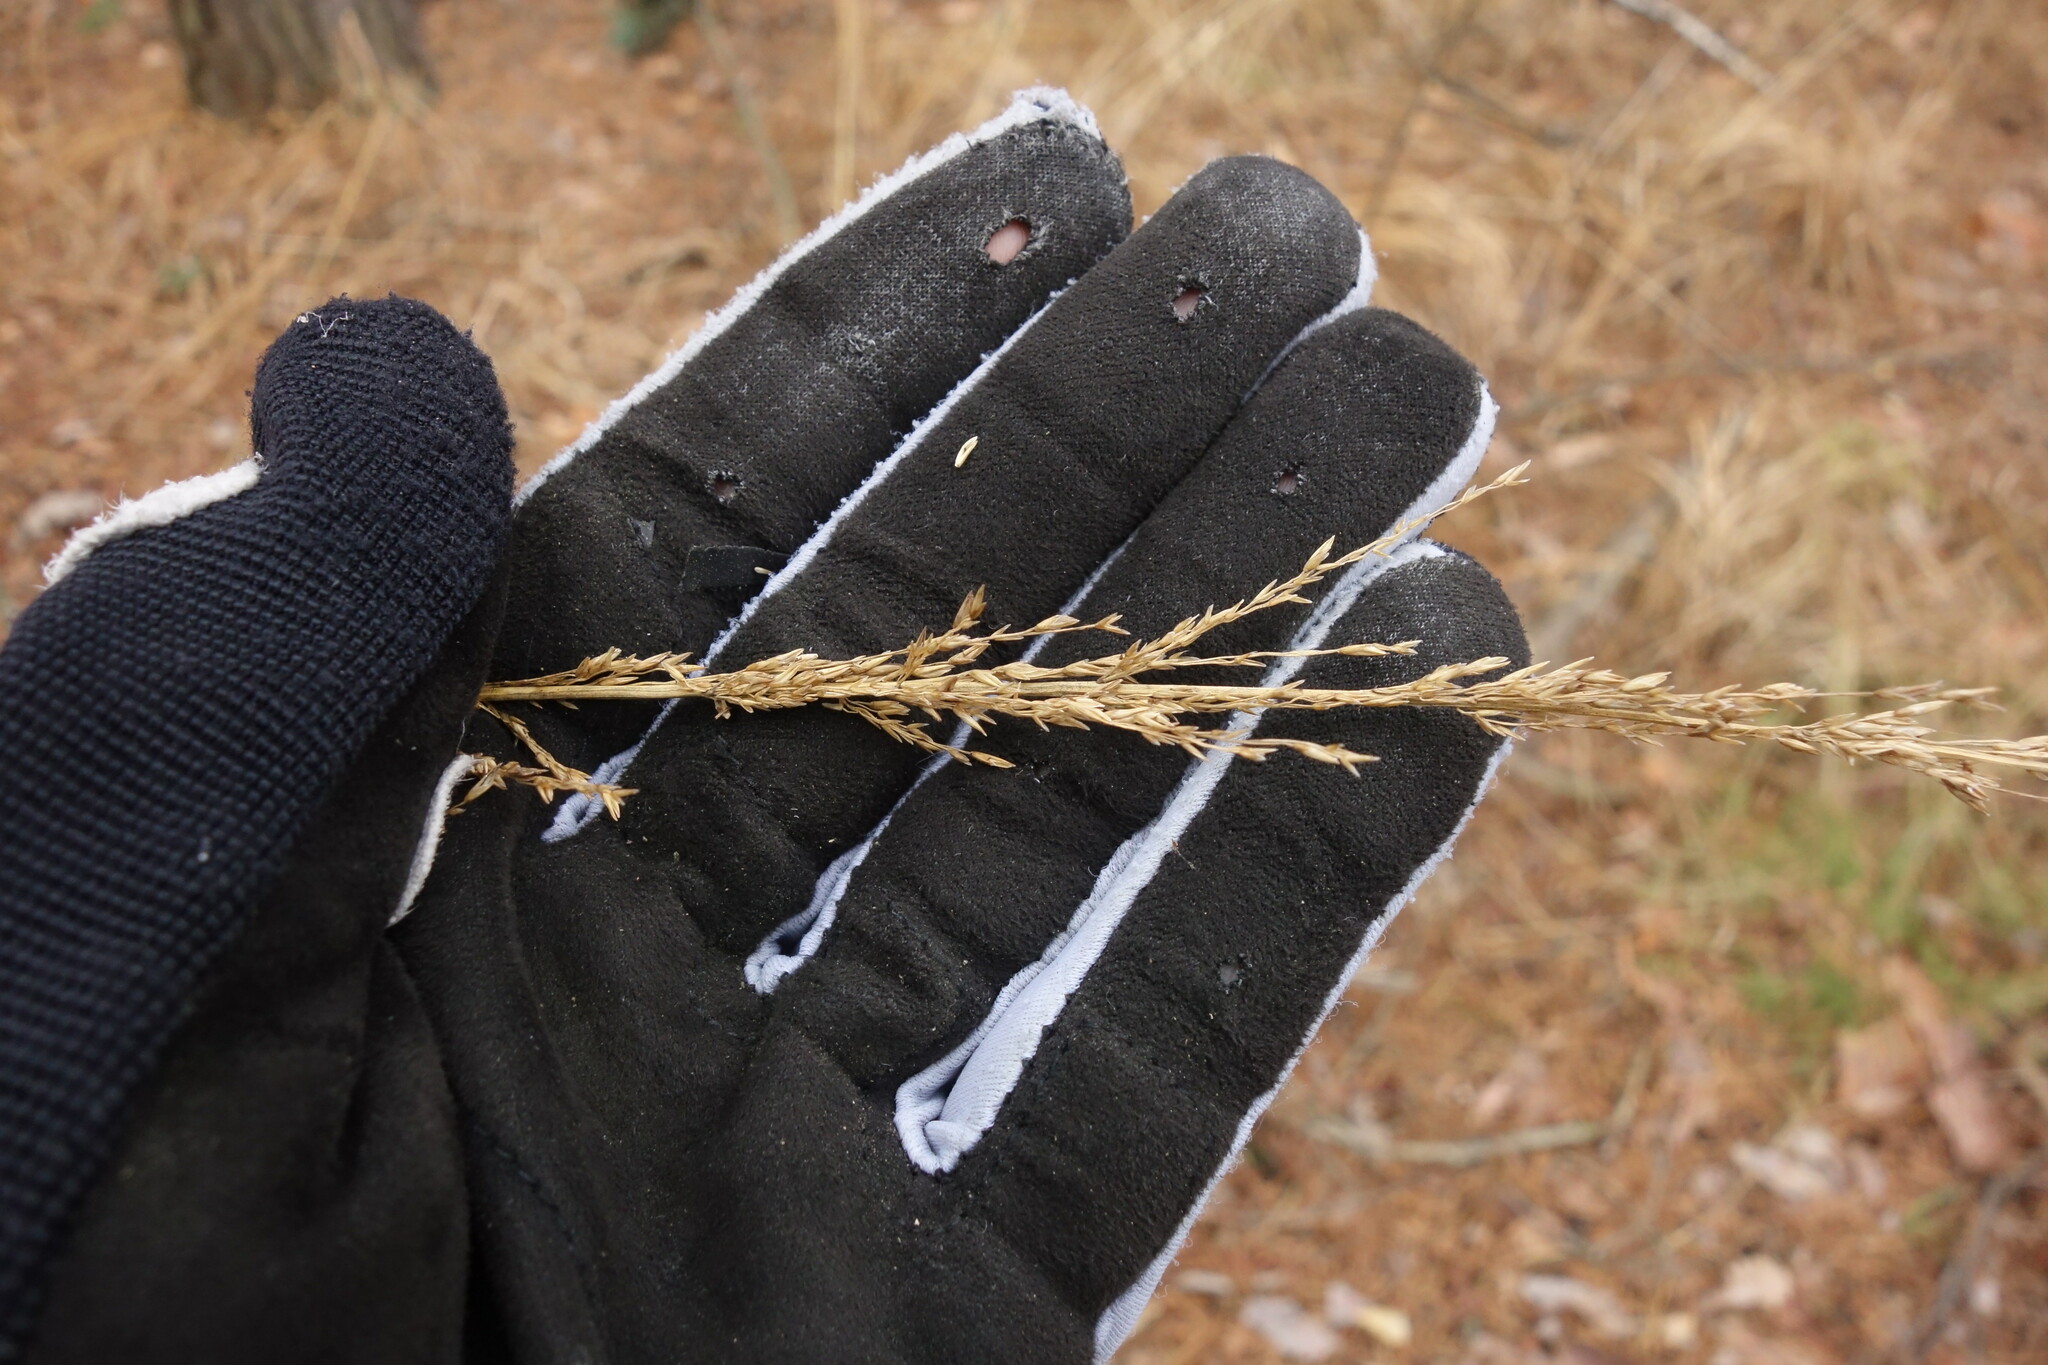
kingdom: Plantae
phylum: Tracheophyta
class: Liliopsida
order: Poales
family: Poaceae
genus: Molinia
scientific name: Molinia caerulea
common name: Purple moor-grass
